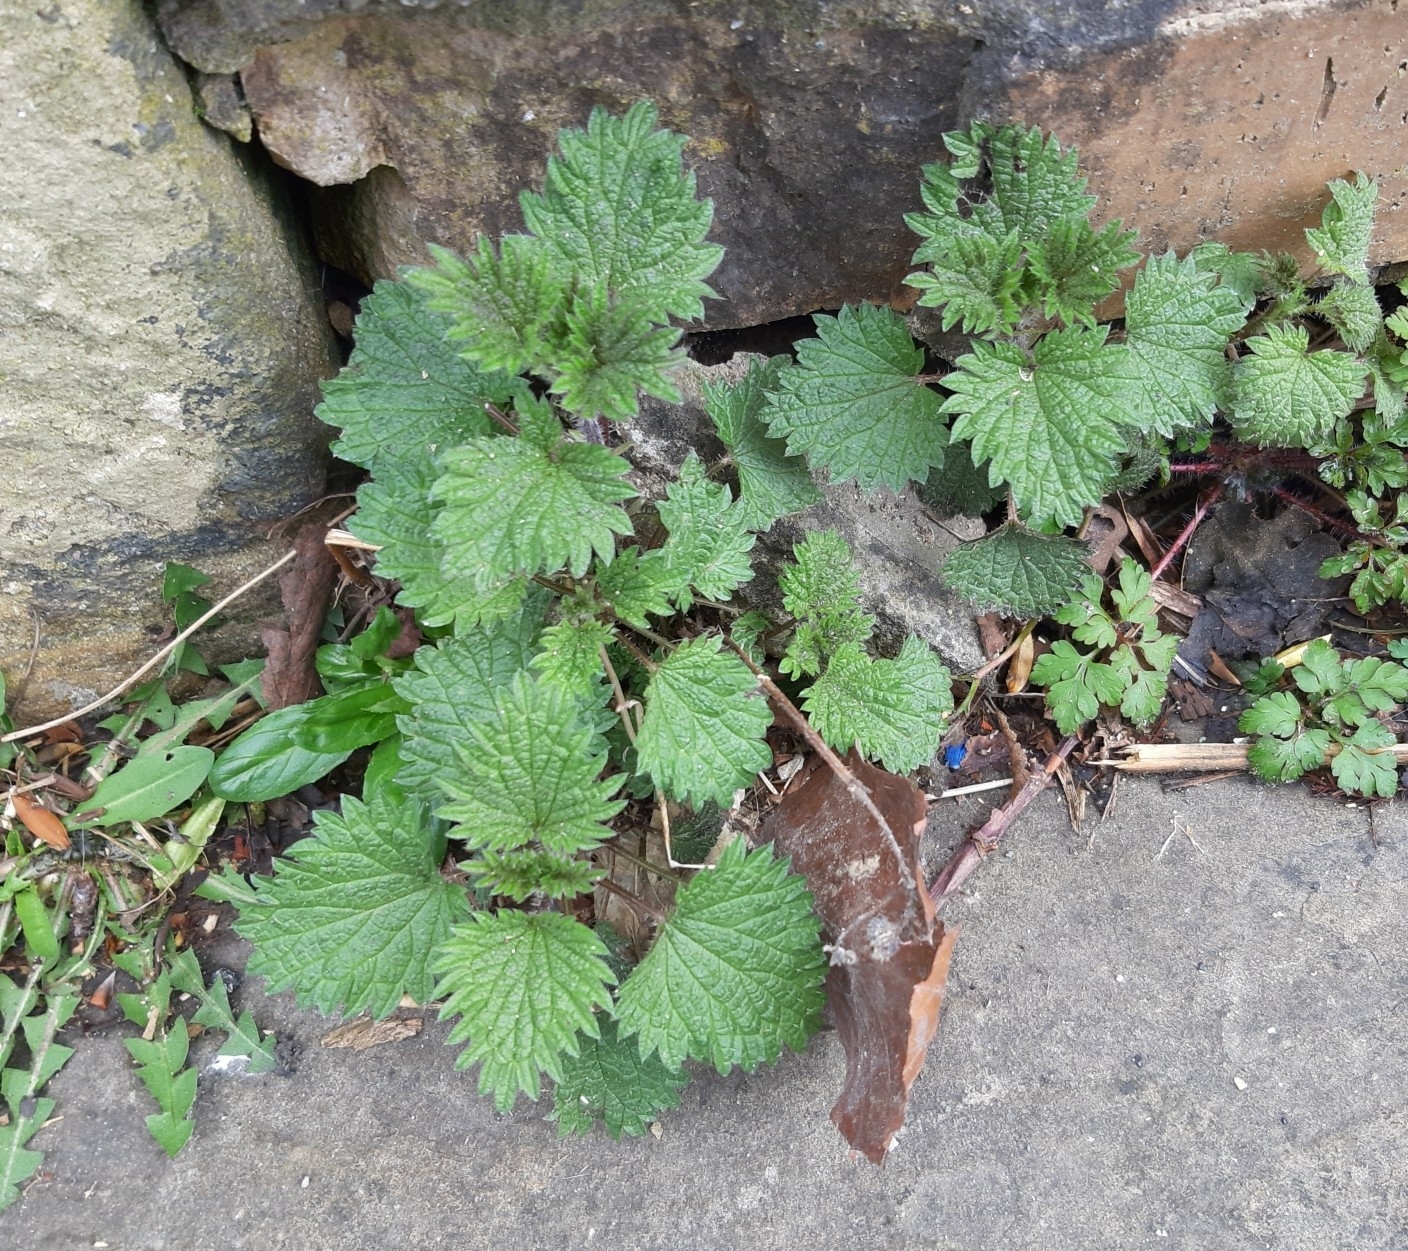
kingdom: Plantae
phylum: Tracheophyta
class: Magnoliopsida
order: Rosales
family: Urticaceae
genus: Urtica
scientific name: Urtica dioica
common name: Common nettle
